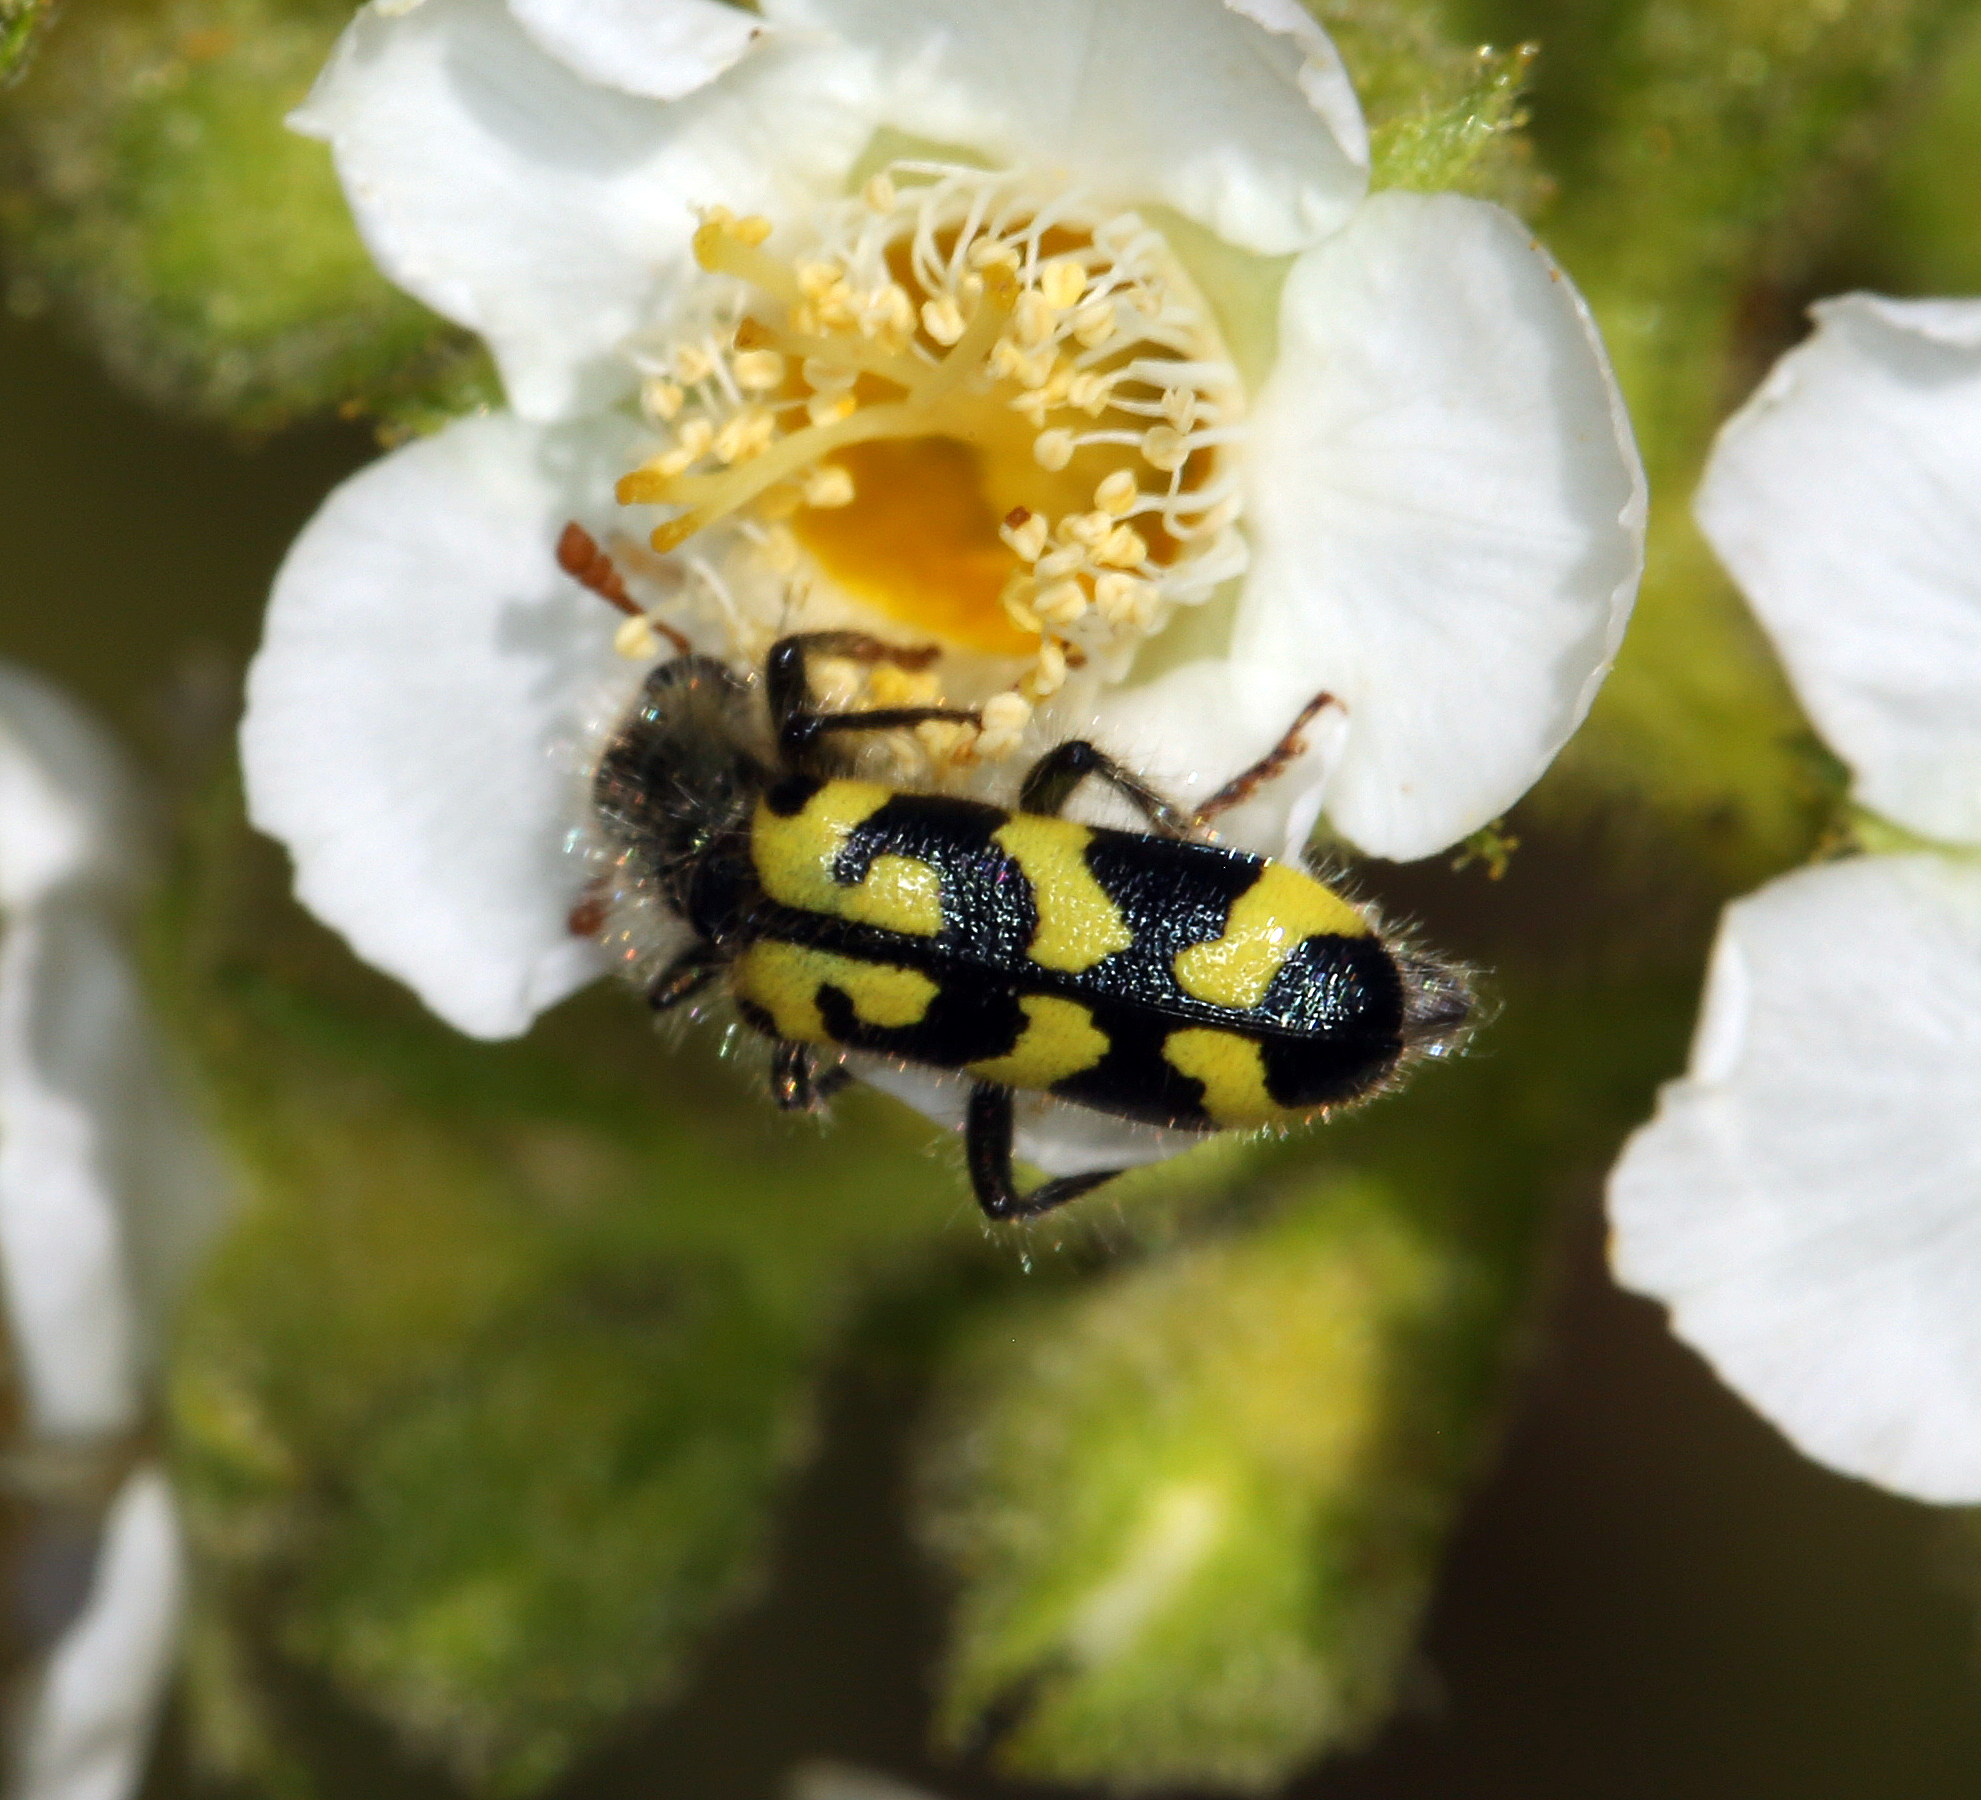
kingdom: Animalia
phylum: Arthropoda
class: Insecta
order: Coleoptera
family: Cleridae
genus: Trichodes
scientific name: Trichodes ornatus
